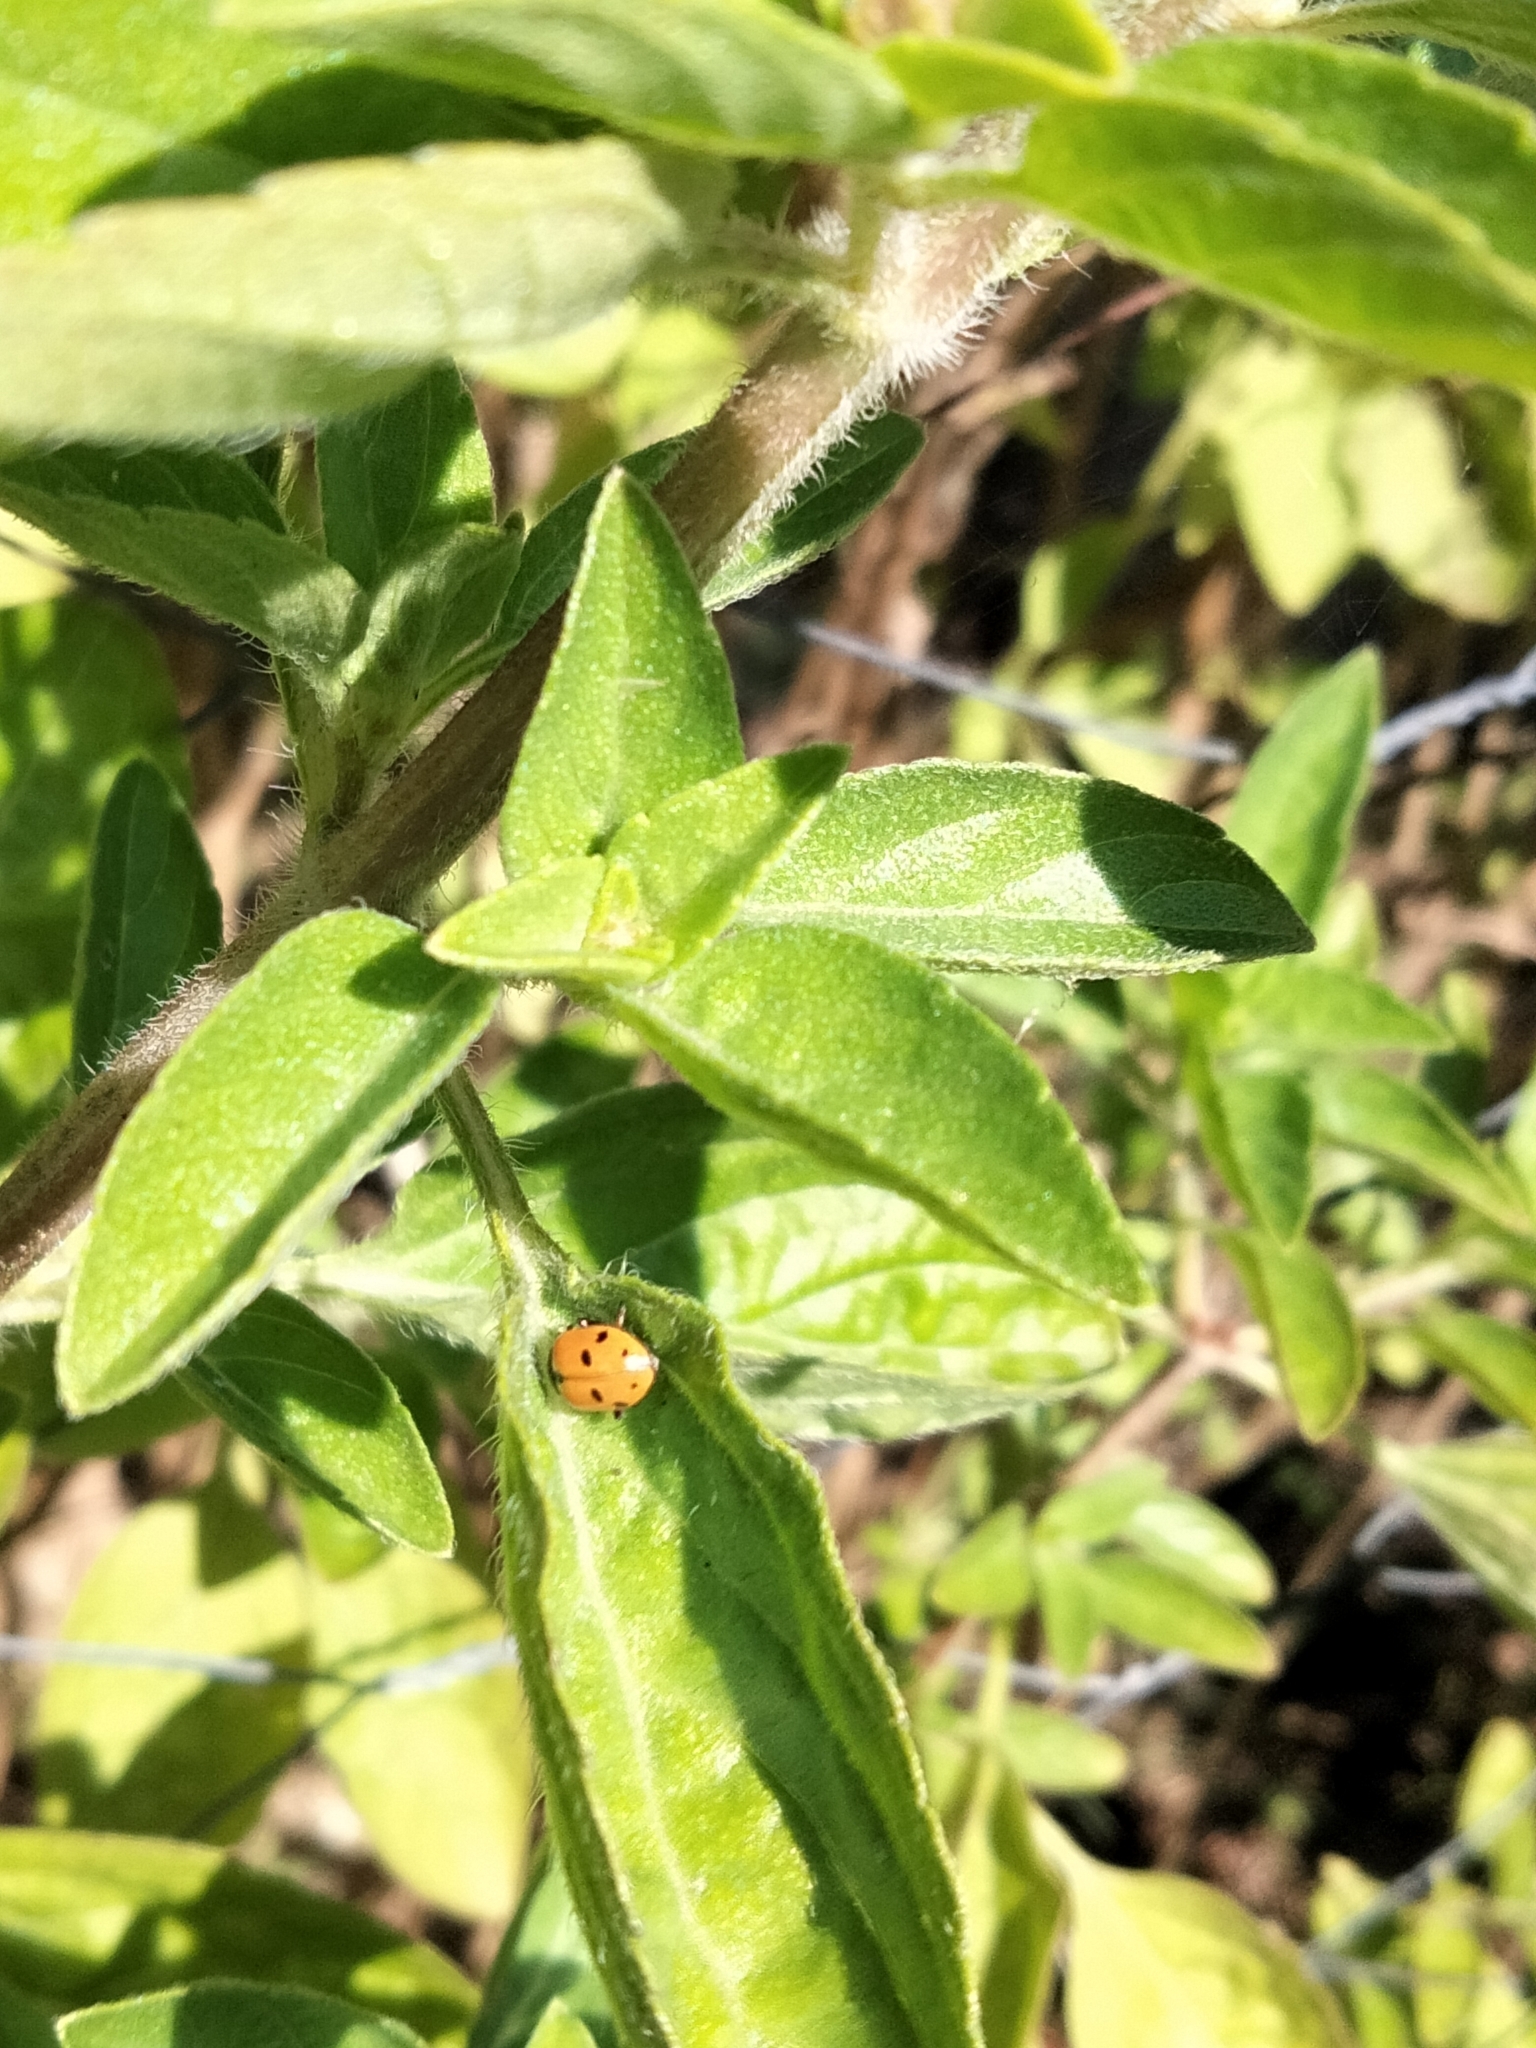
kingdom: Animalia
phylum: Arthropoda
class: Insecta
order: Coleoptera
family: Coccinellidae
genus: Hippodamia
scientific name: Hippodamia variegata
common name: Ladybird beetle
